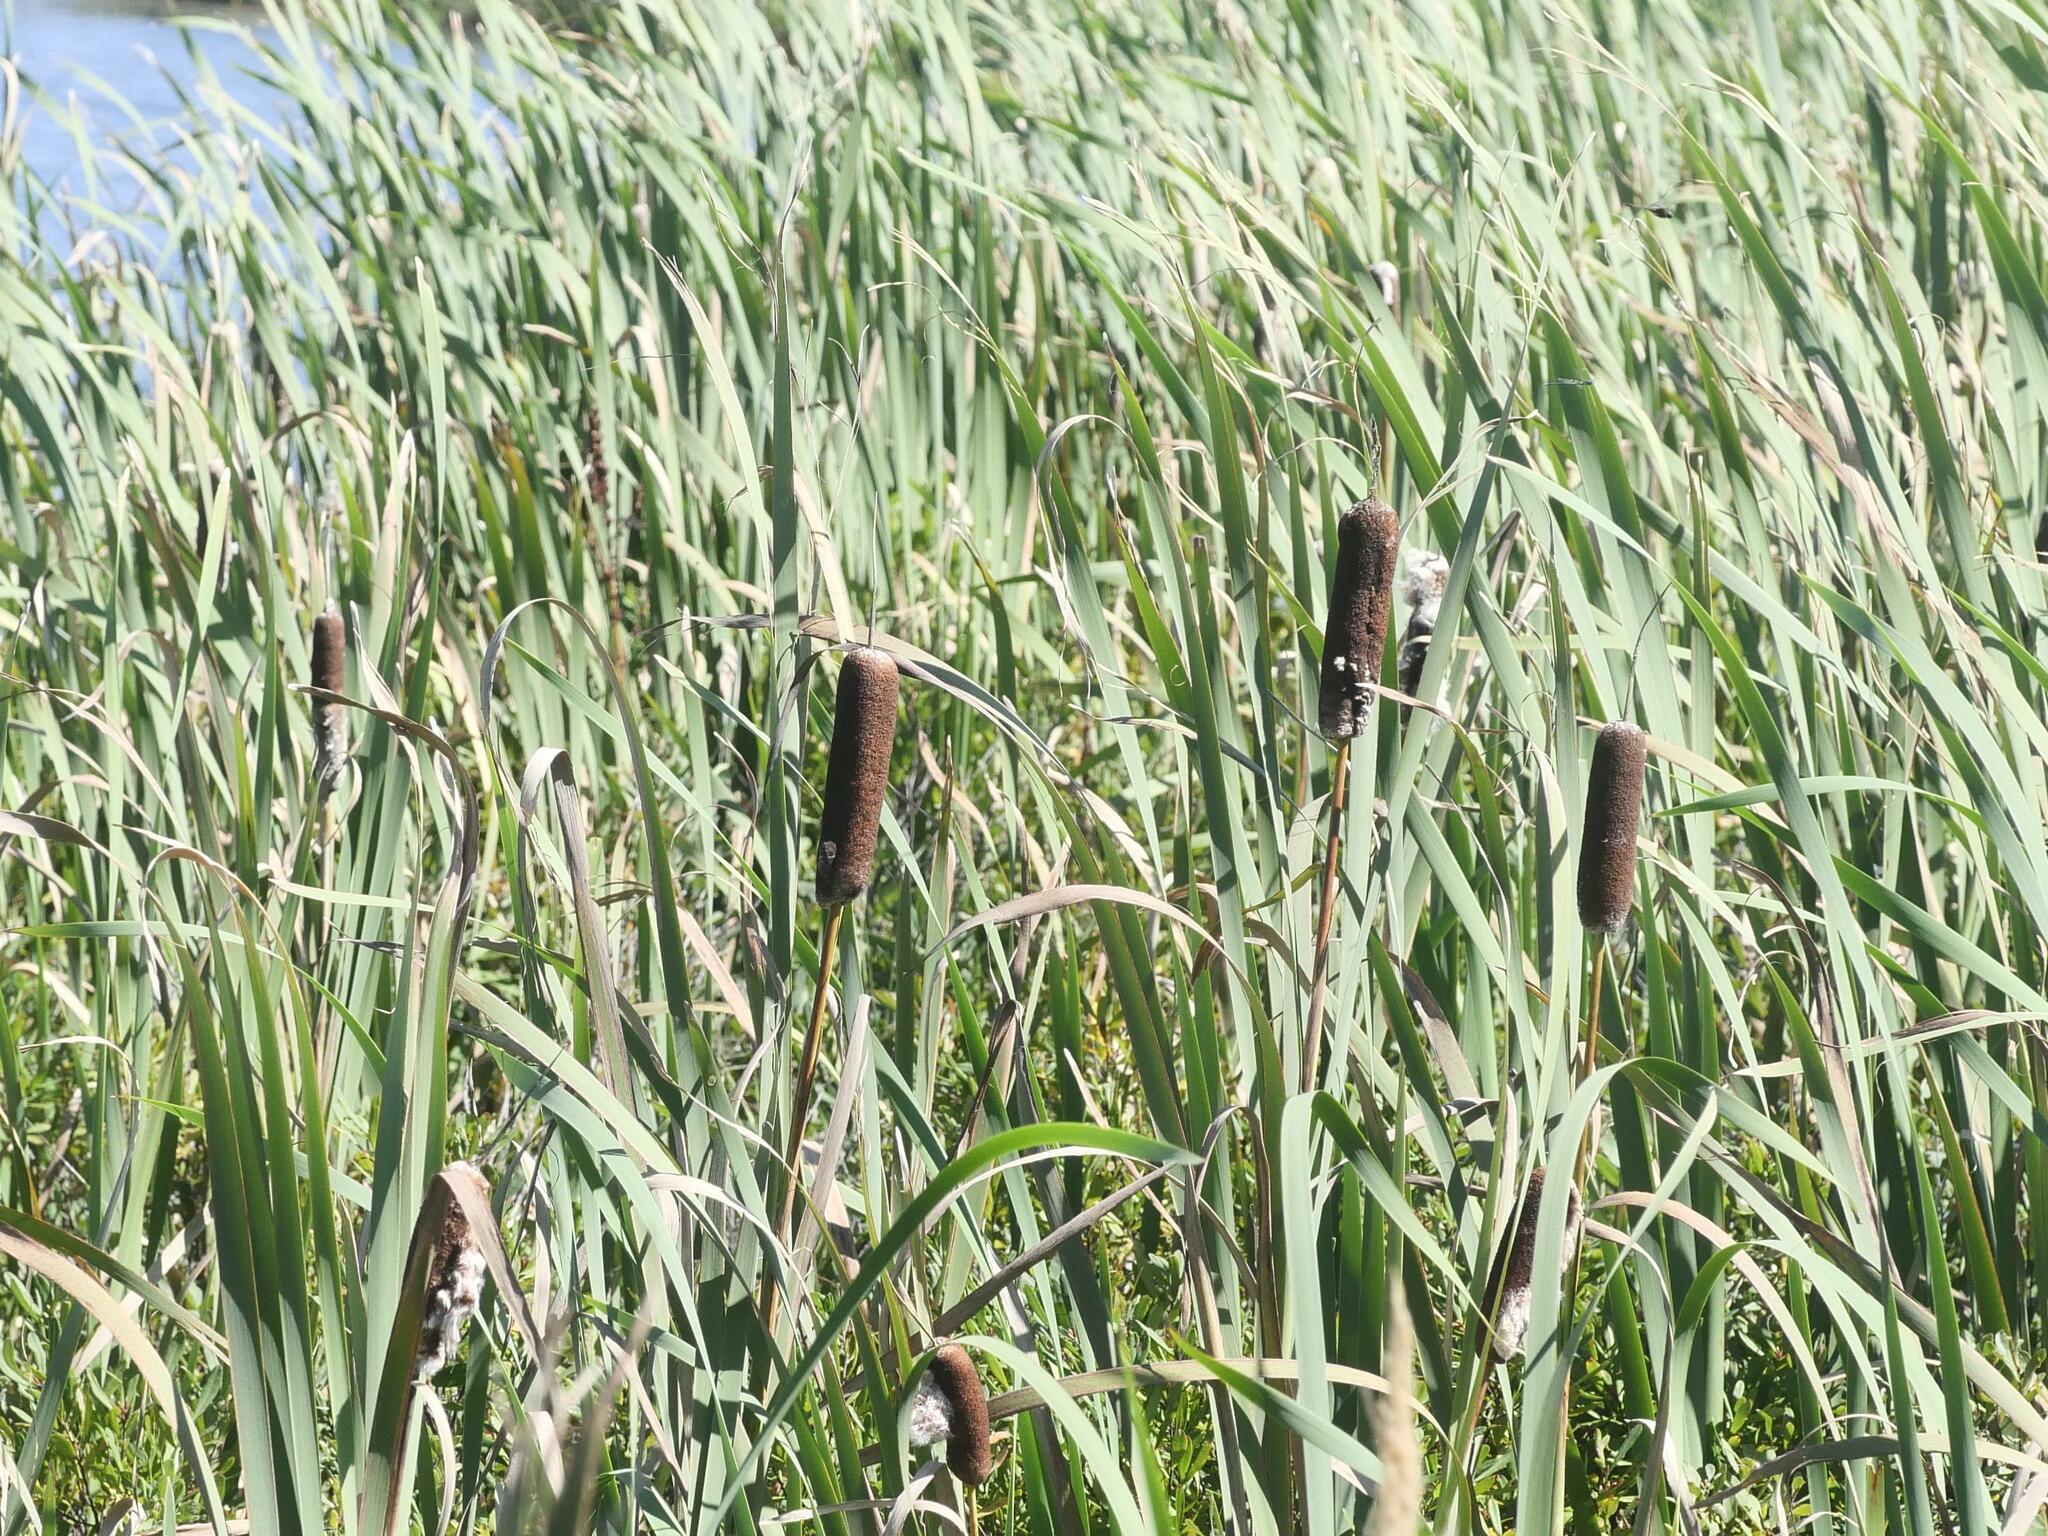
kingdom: Plantae
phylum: Tracheophyta
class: Liliopsida
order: Poales
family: Typhaceae
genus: Typha
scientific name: Typha latifolia
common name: Broadleaf cattail
